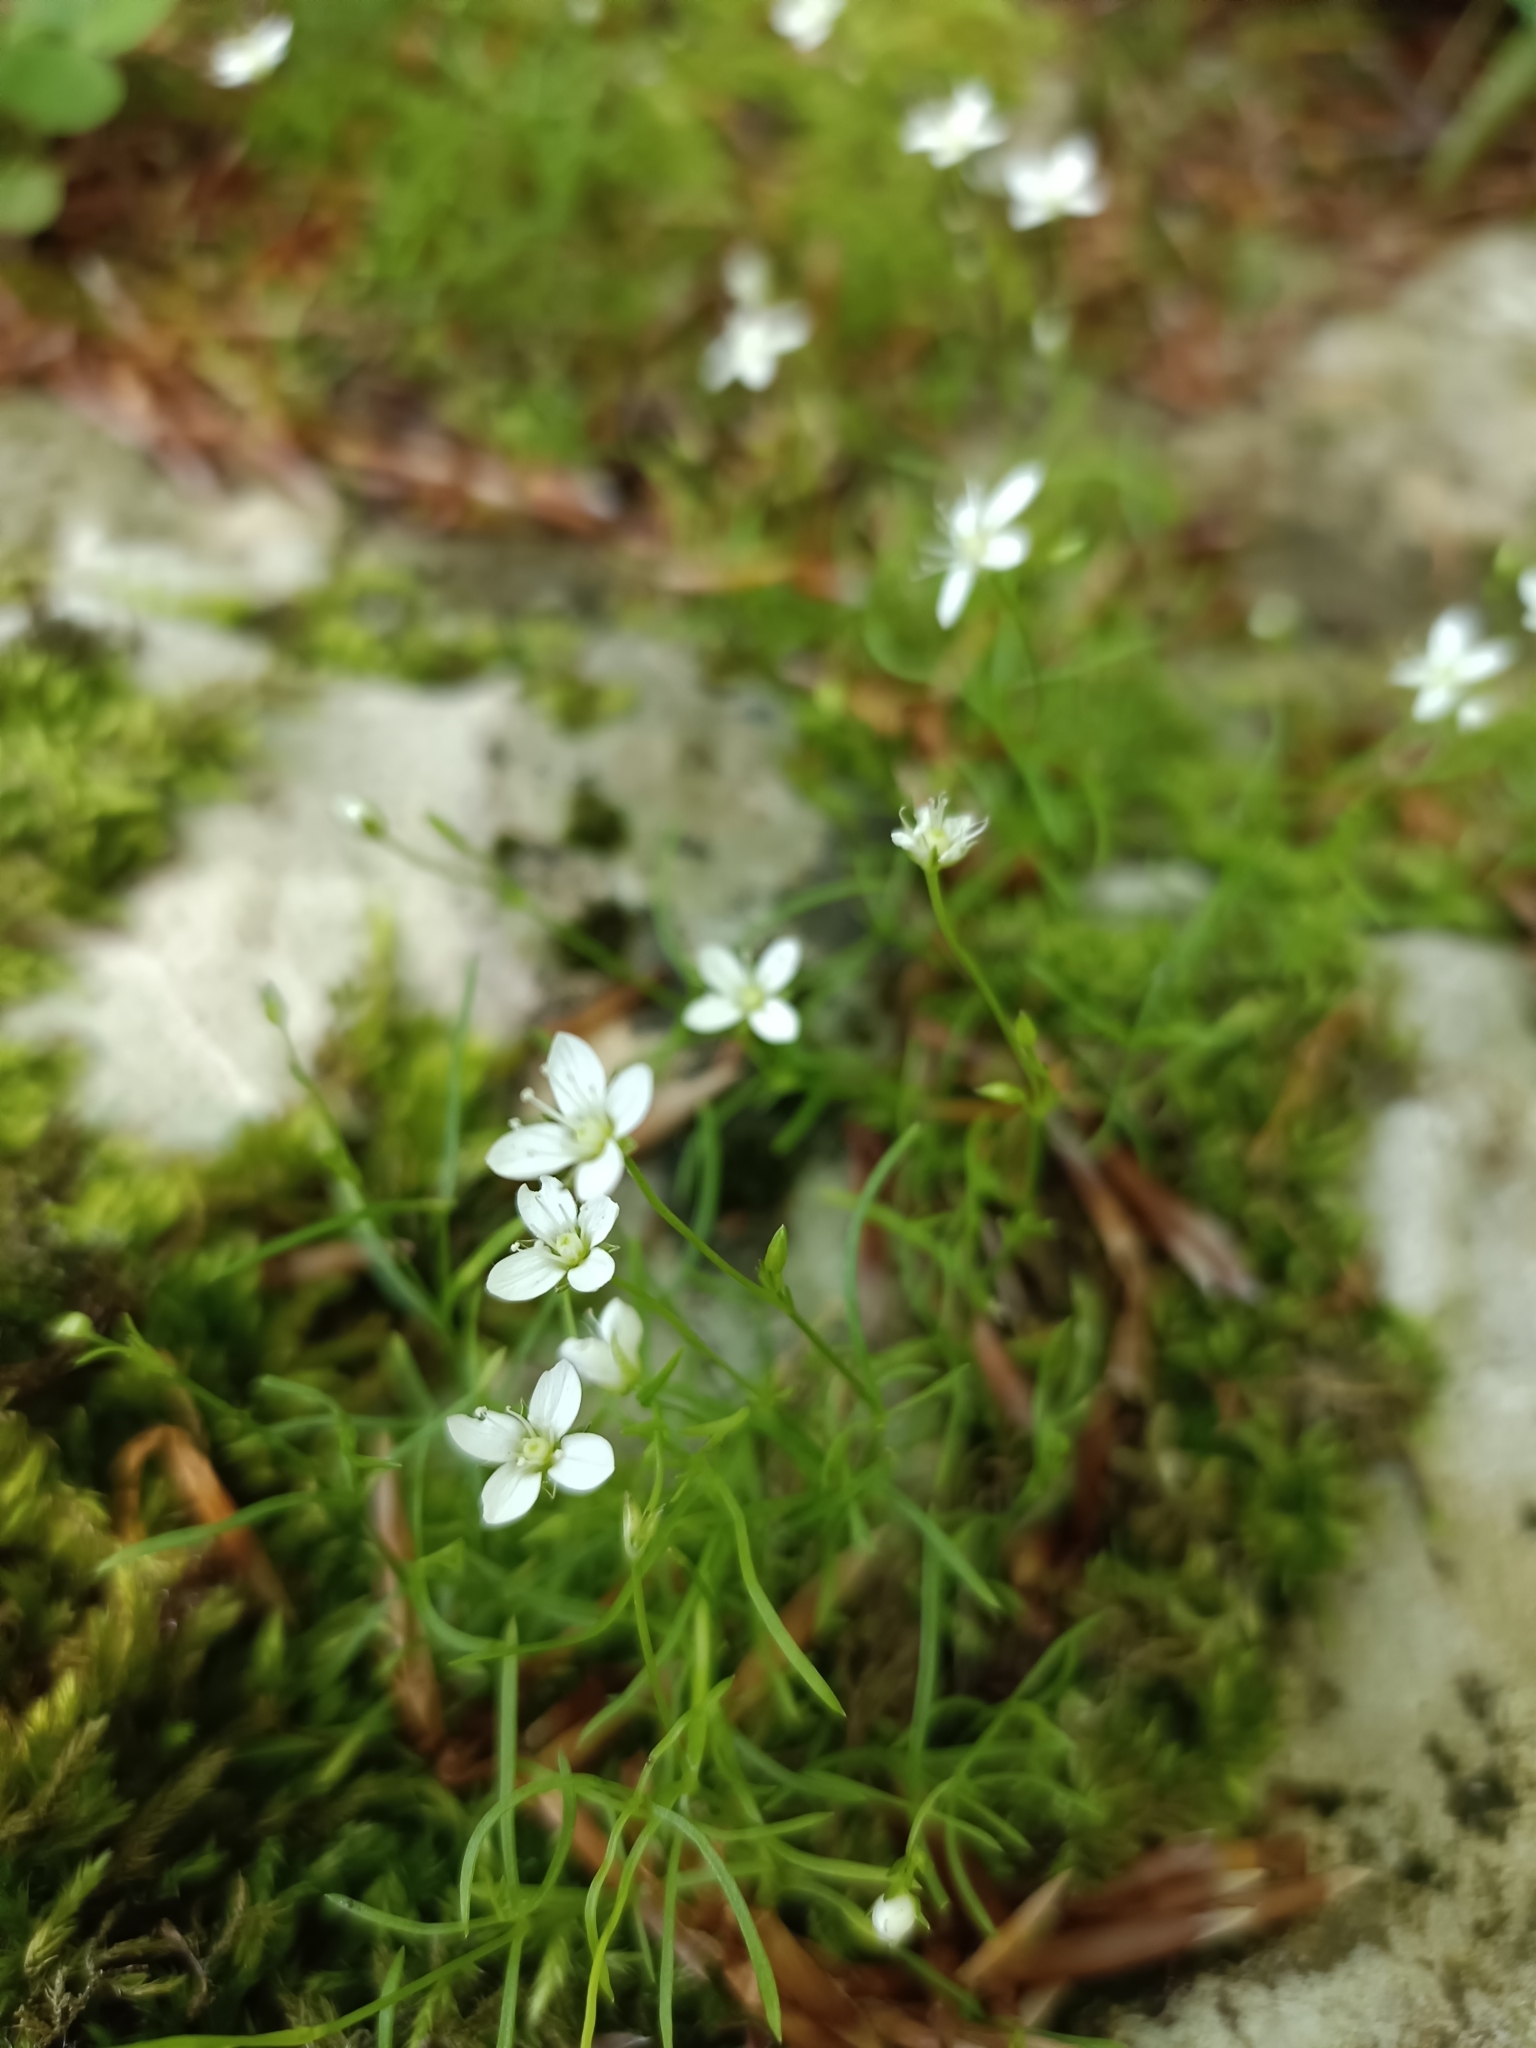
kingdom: Plantae
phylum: Tracheophyta
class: Magnoliopsida
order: Caryophyllales
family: Caryophyllaceae
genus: Moehringia
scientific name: Moehringia muscosa
